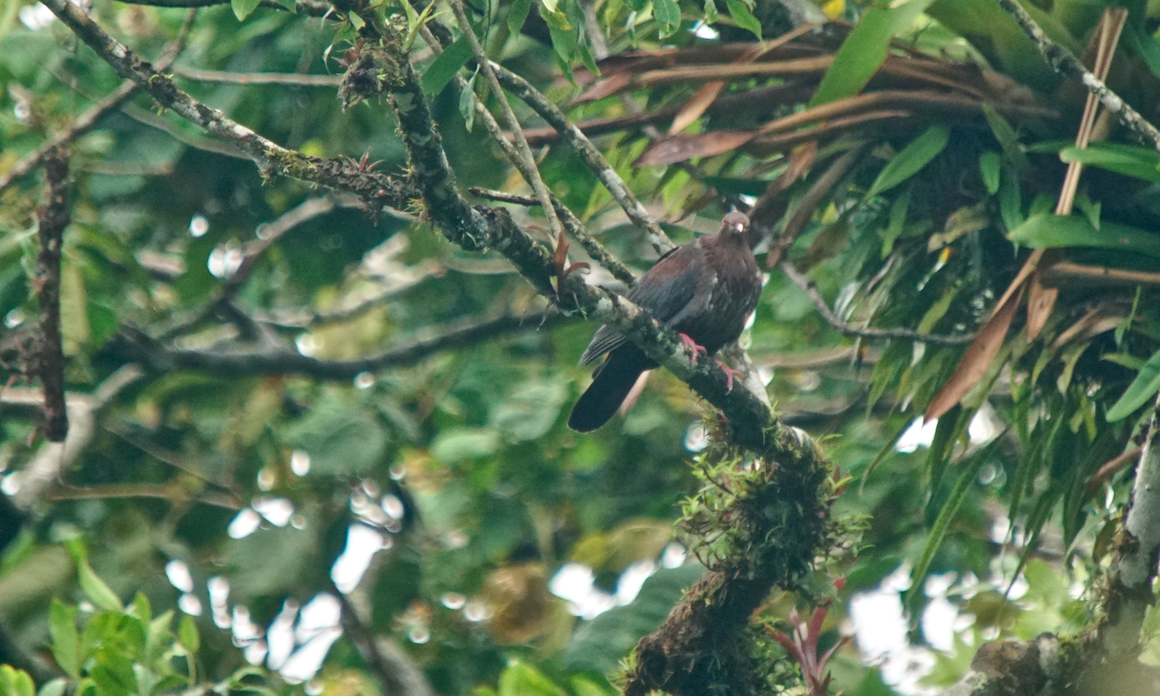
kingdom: Animalia
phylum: Chordata
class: Aves
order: Columbiformes
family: Columbidae
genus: Patagioenas
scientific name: Patagioenas flavirostris
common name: Red-billed pigeon
